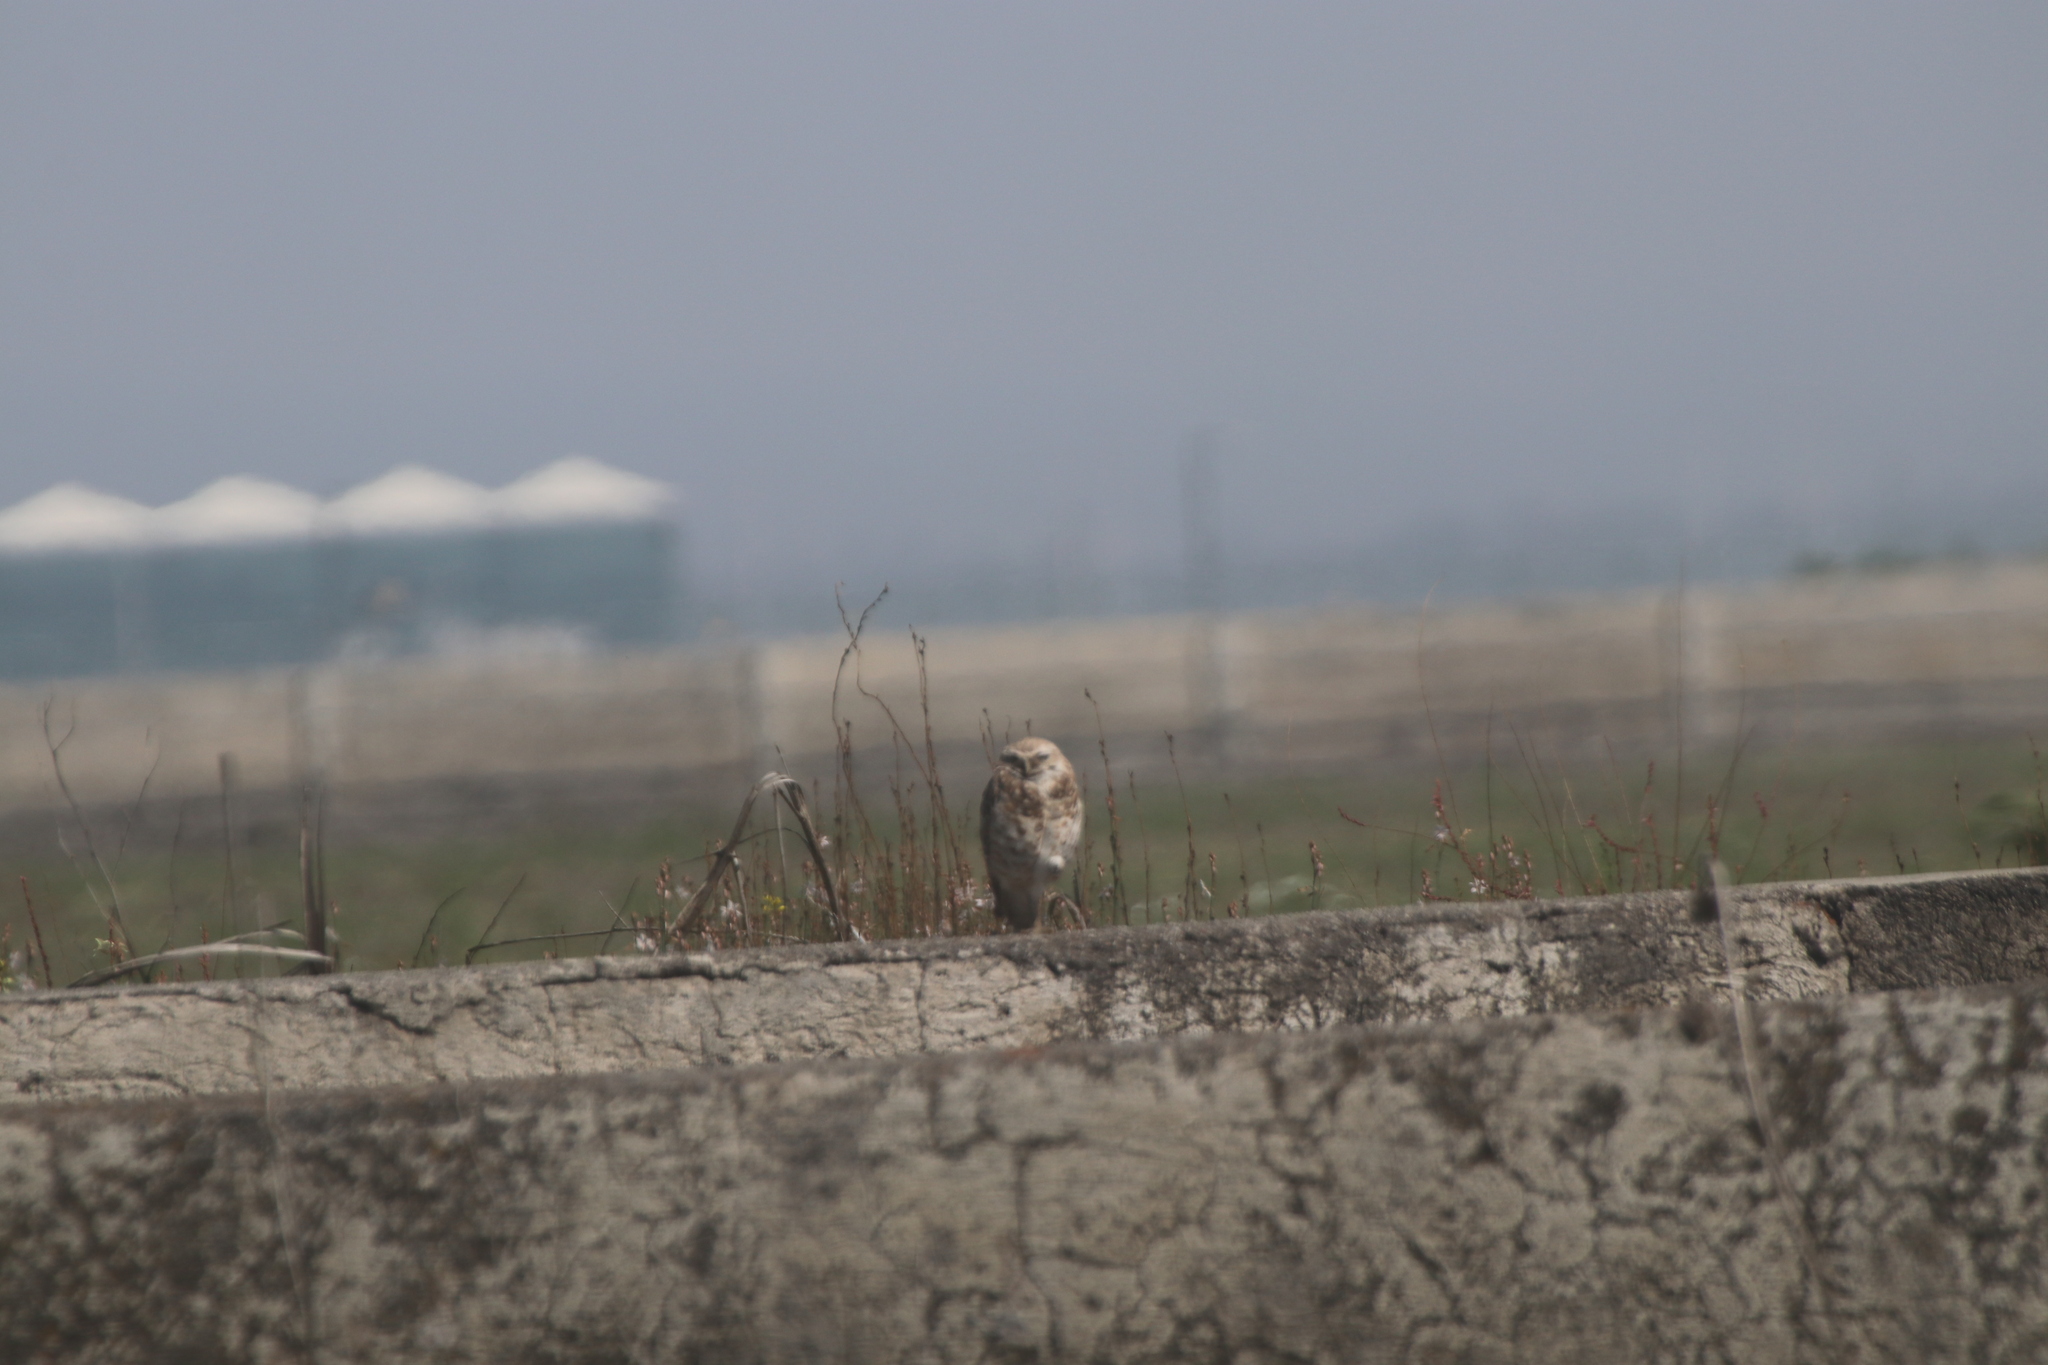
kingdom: Animalia
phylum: Chordata
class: Aves
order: Strigiformes
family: Strigidae
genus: Athene
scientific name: Athene cunicularia
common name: Burrowing owl
